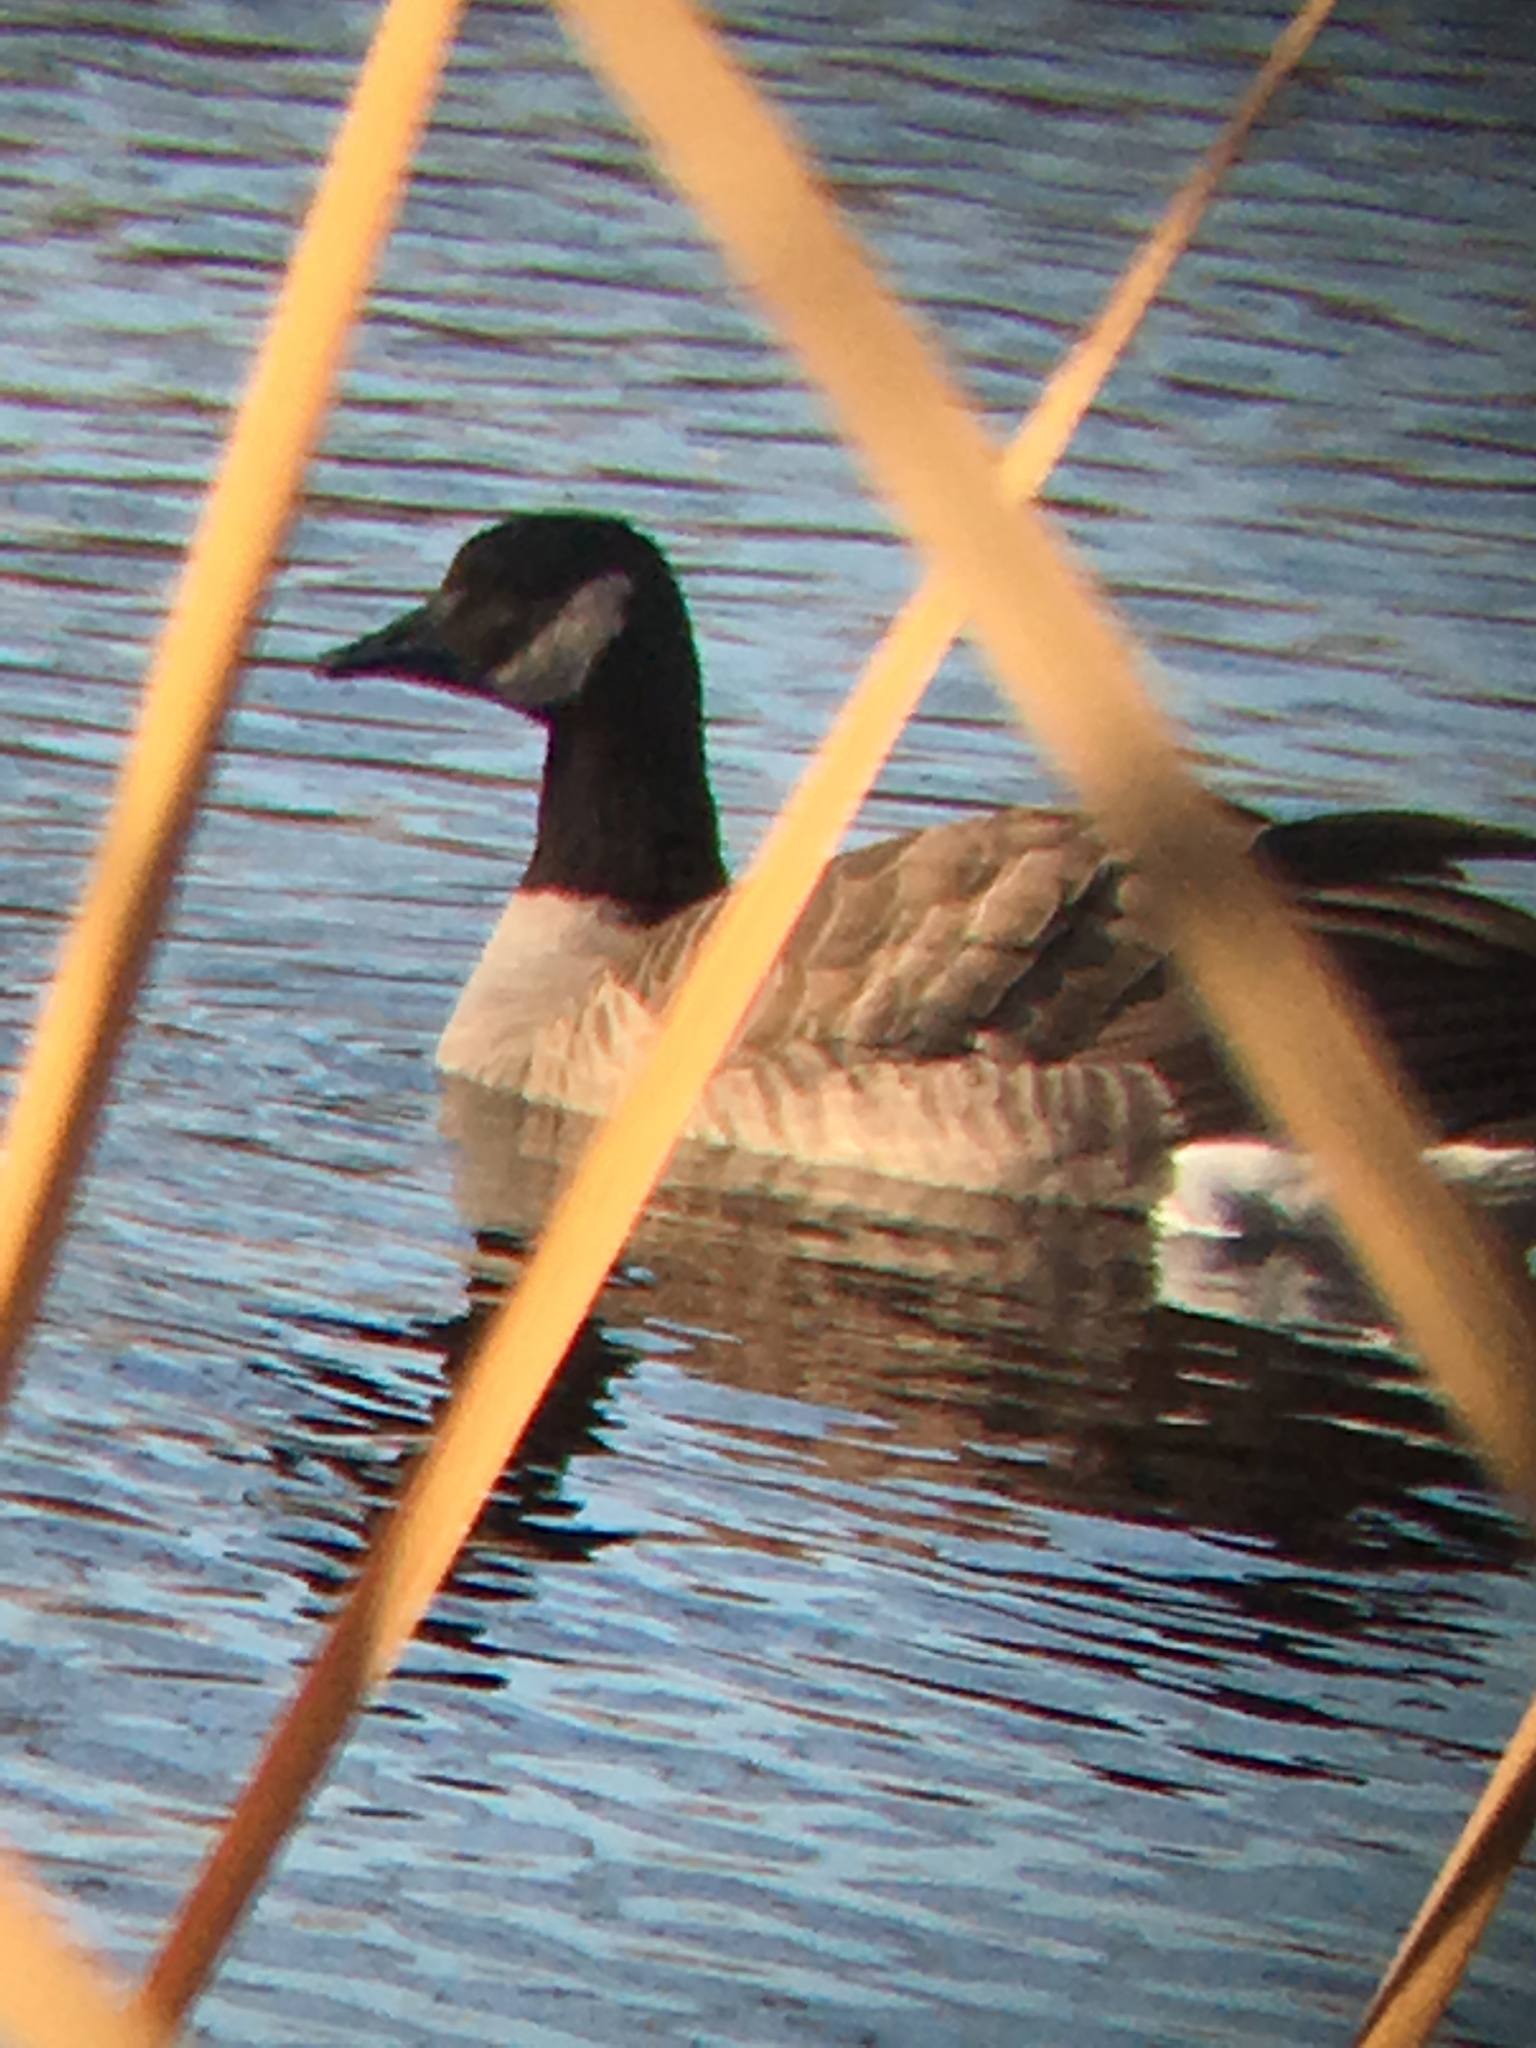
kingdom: Animalia
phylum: Chordata
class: Aves
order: Anseriformes
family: Anatidae
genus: Branta
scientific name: Branta canadensis
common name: Canada goose
